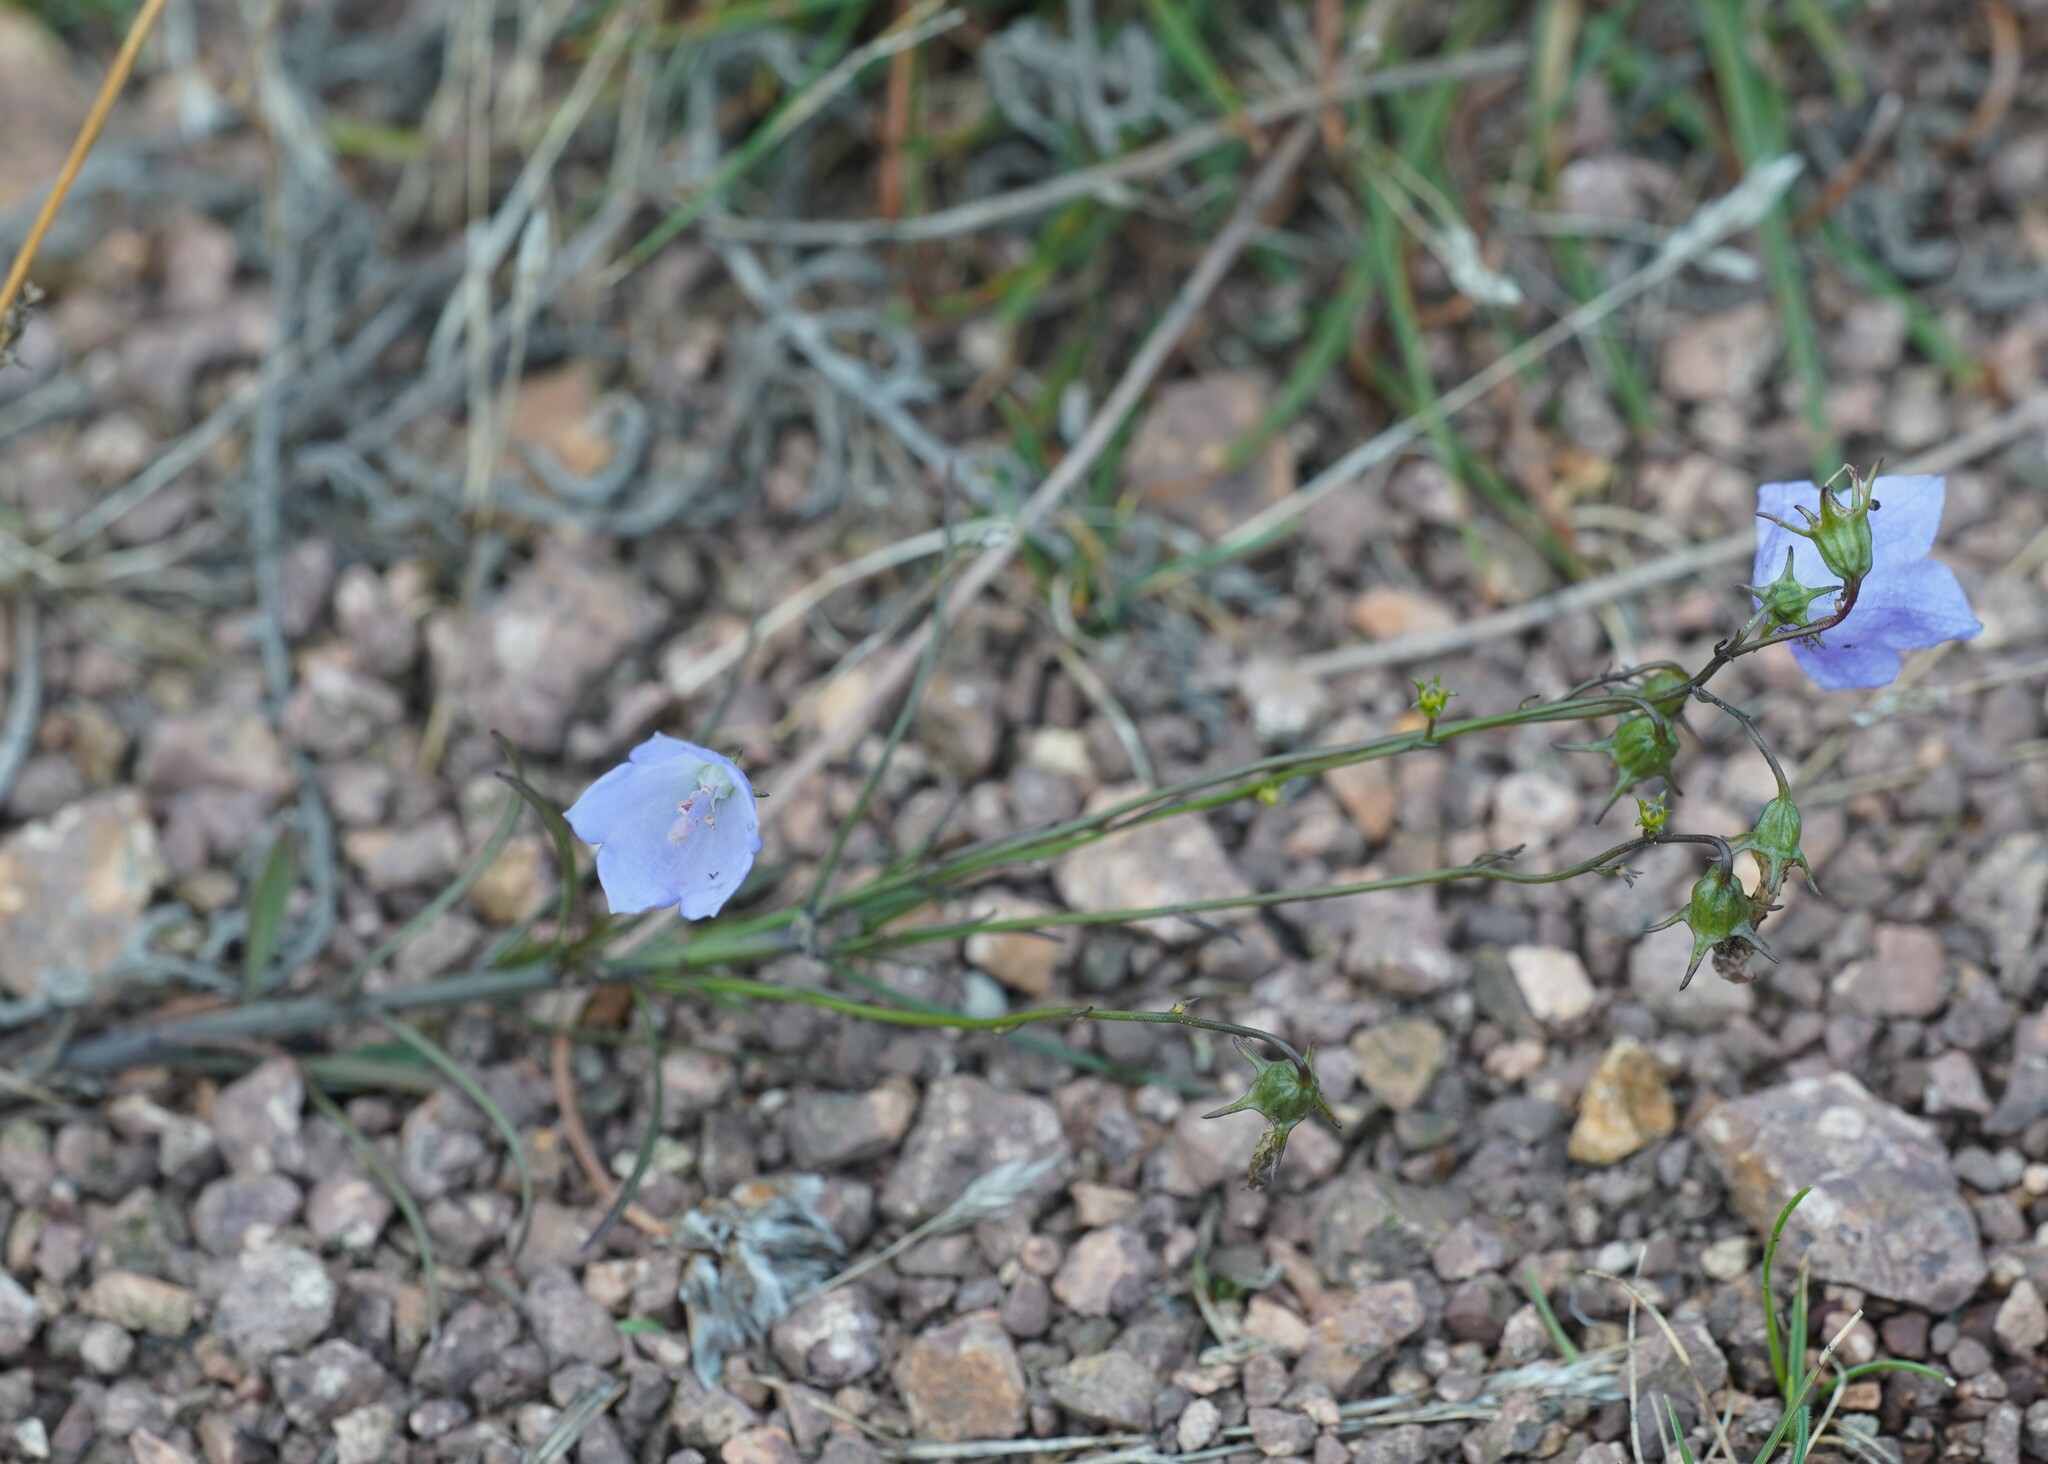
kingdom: Plantae
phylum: Tracheophyta
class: Magnoliopsida
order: Asterales
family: Campanulaceae
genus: Campanula
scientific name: Campanula rotundifolia
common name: Harebell
